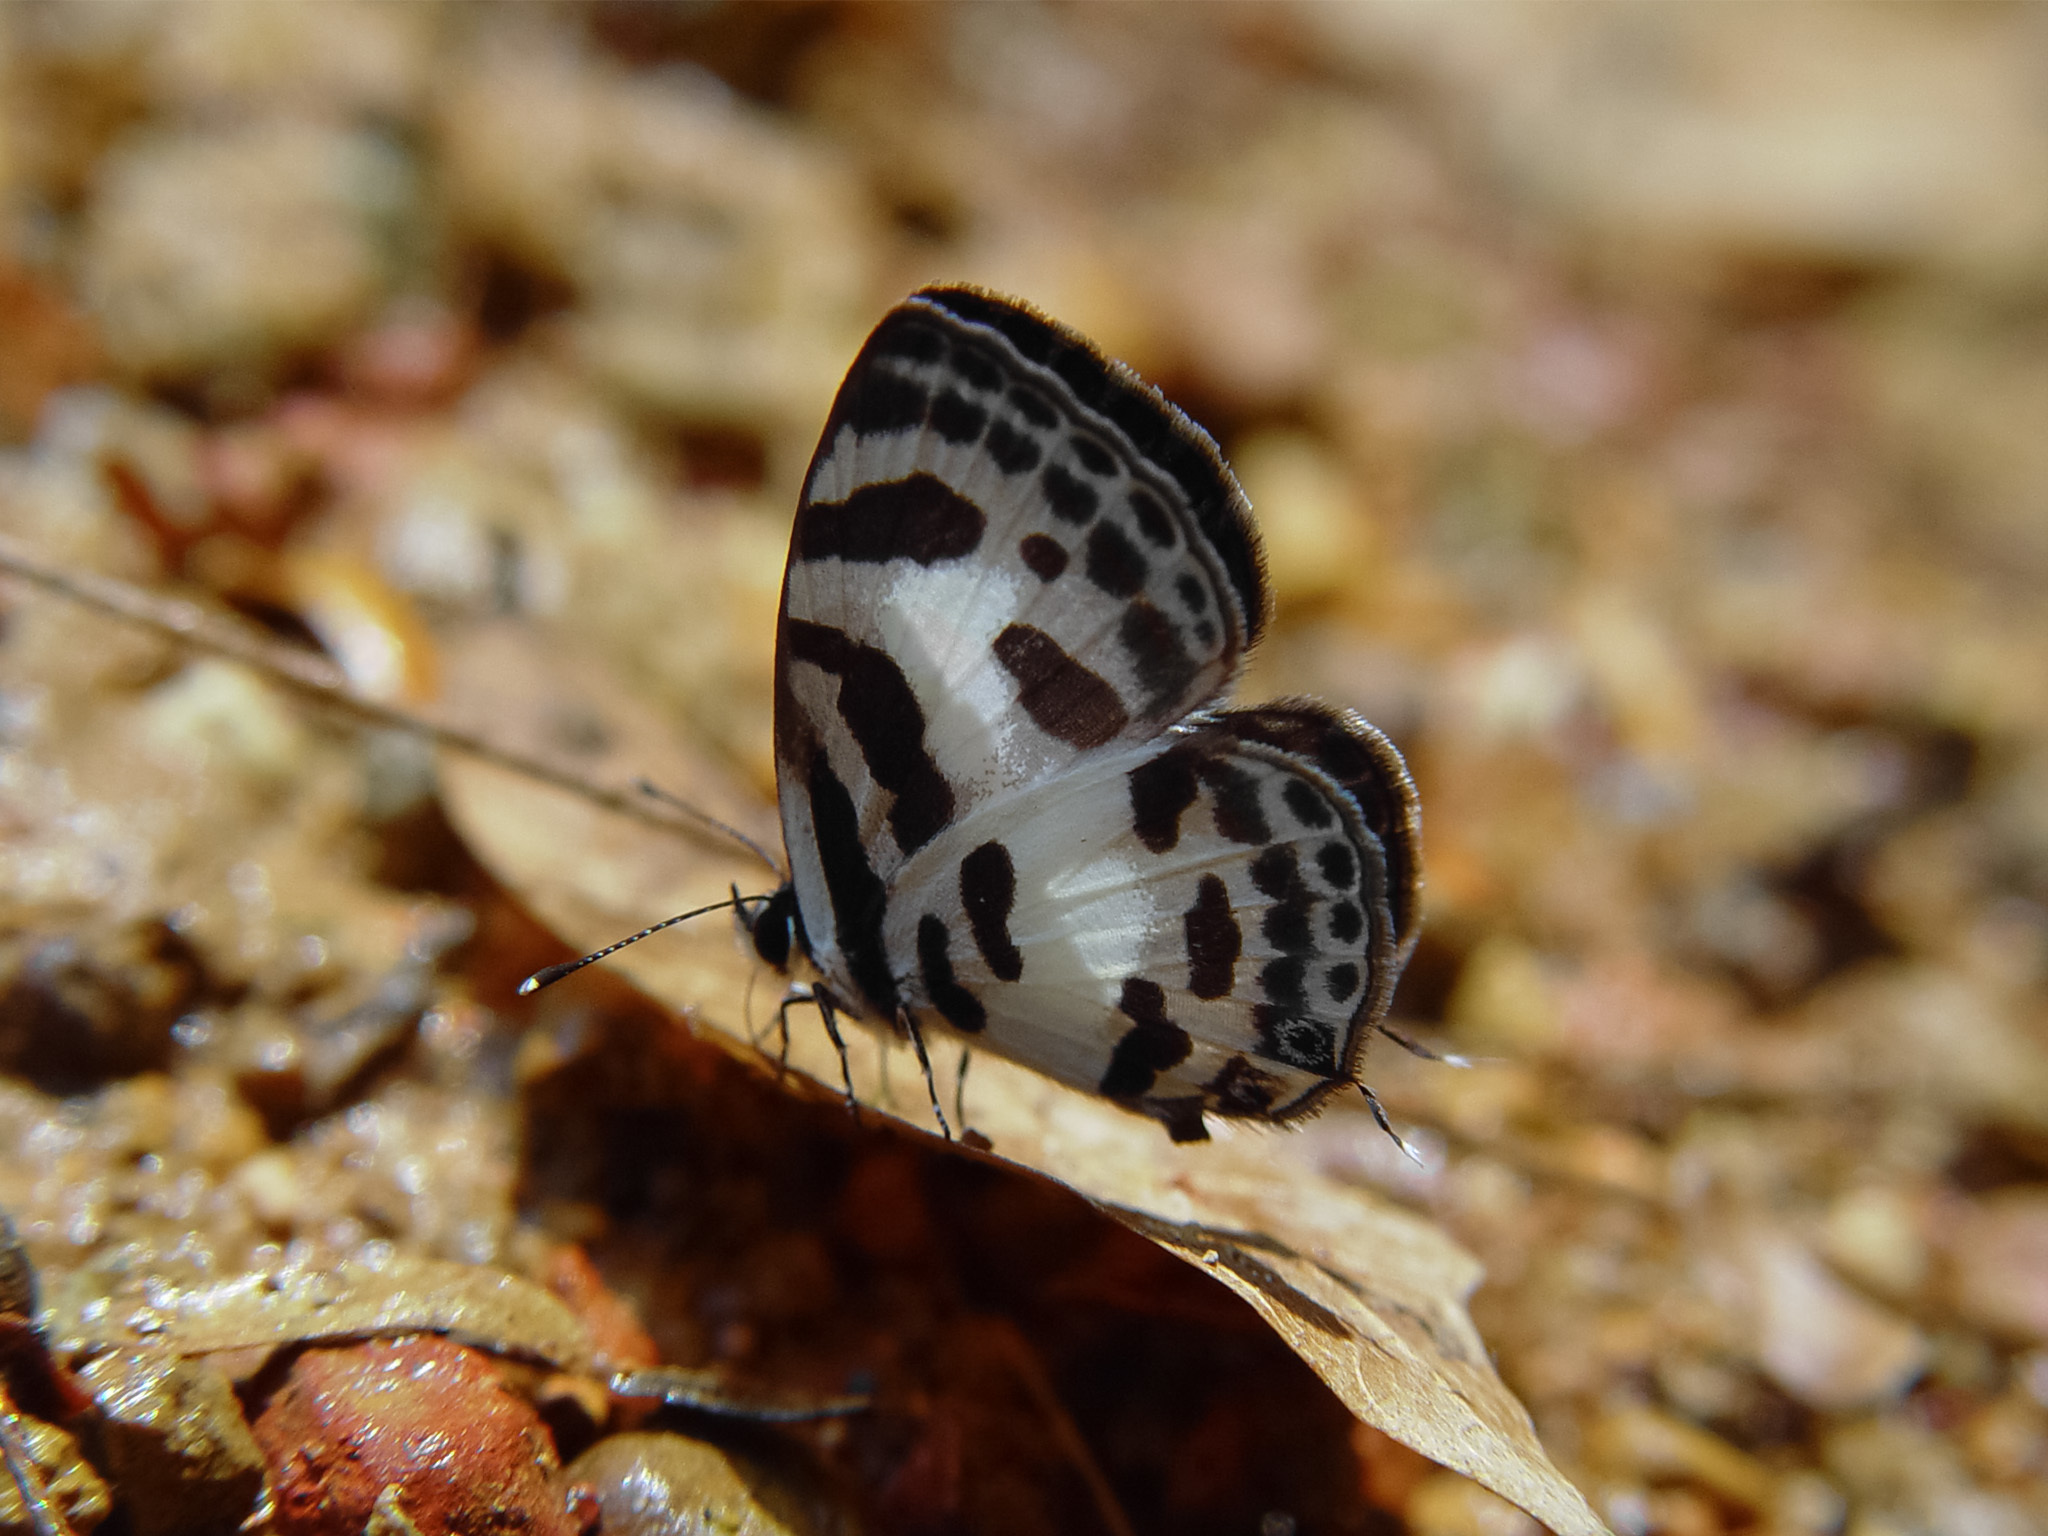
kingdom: Animalia
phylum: Arthropoda
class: Insecta
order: Lepidoptera
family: Lycaenidae
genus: Discolampa
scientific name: Discolampa ethion
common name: Banded blue pierrot
